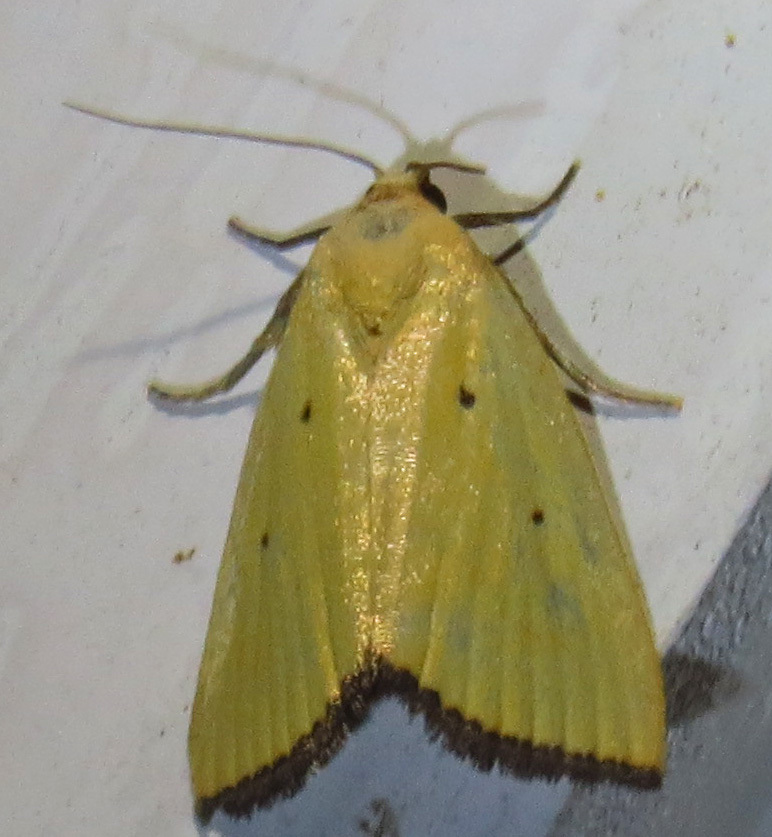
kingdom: Animalia
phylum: Arthropoda
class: Insecta
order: Lepidoptera
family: Noctuidae
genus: Marimatha
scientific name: Marimatha nigrofimbria
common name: Black-bordered lemon moth
